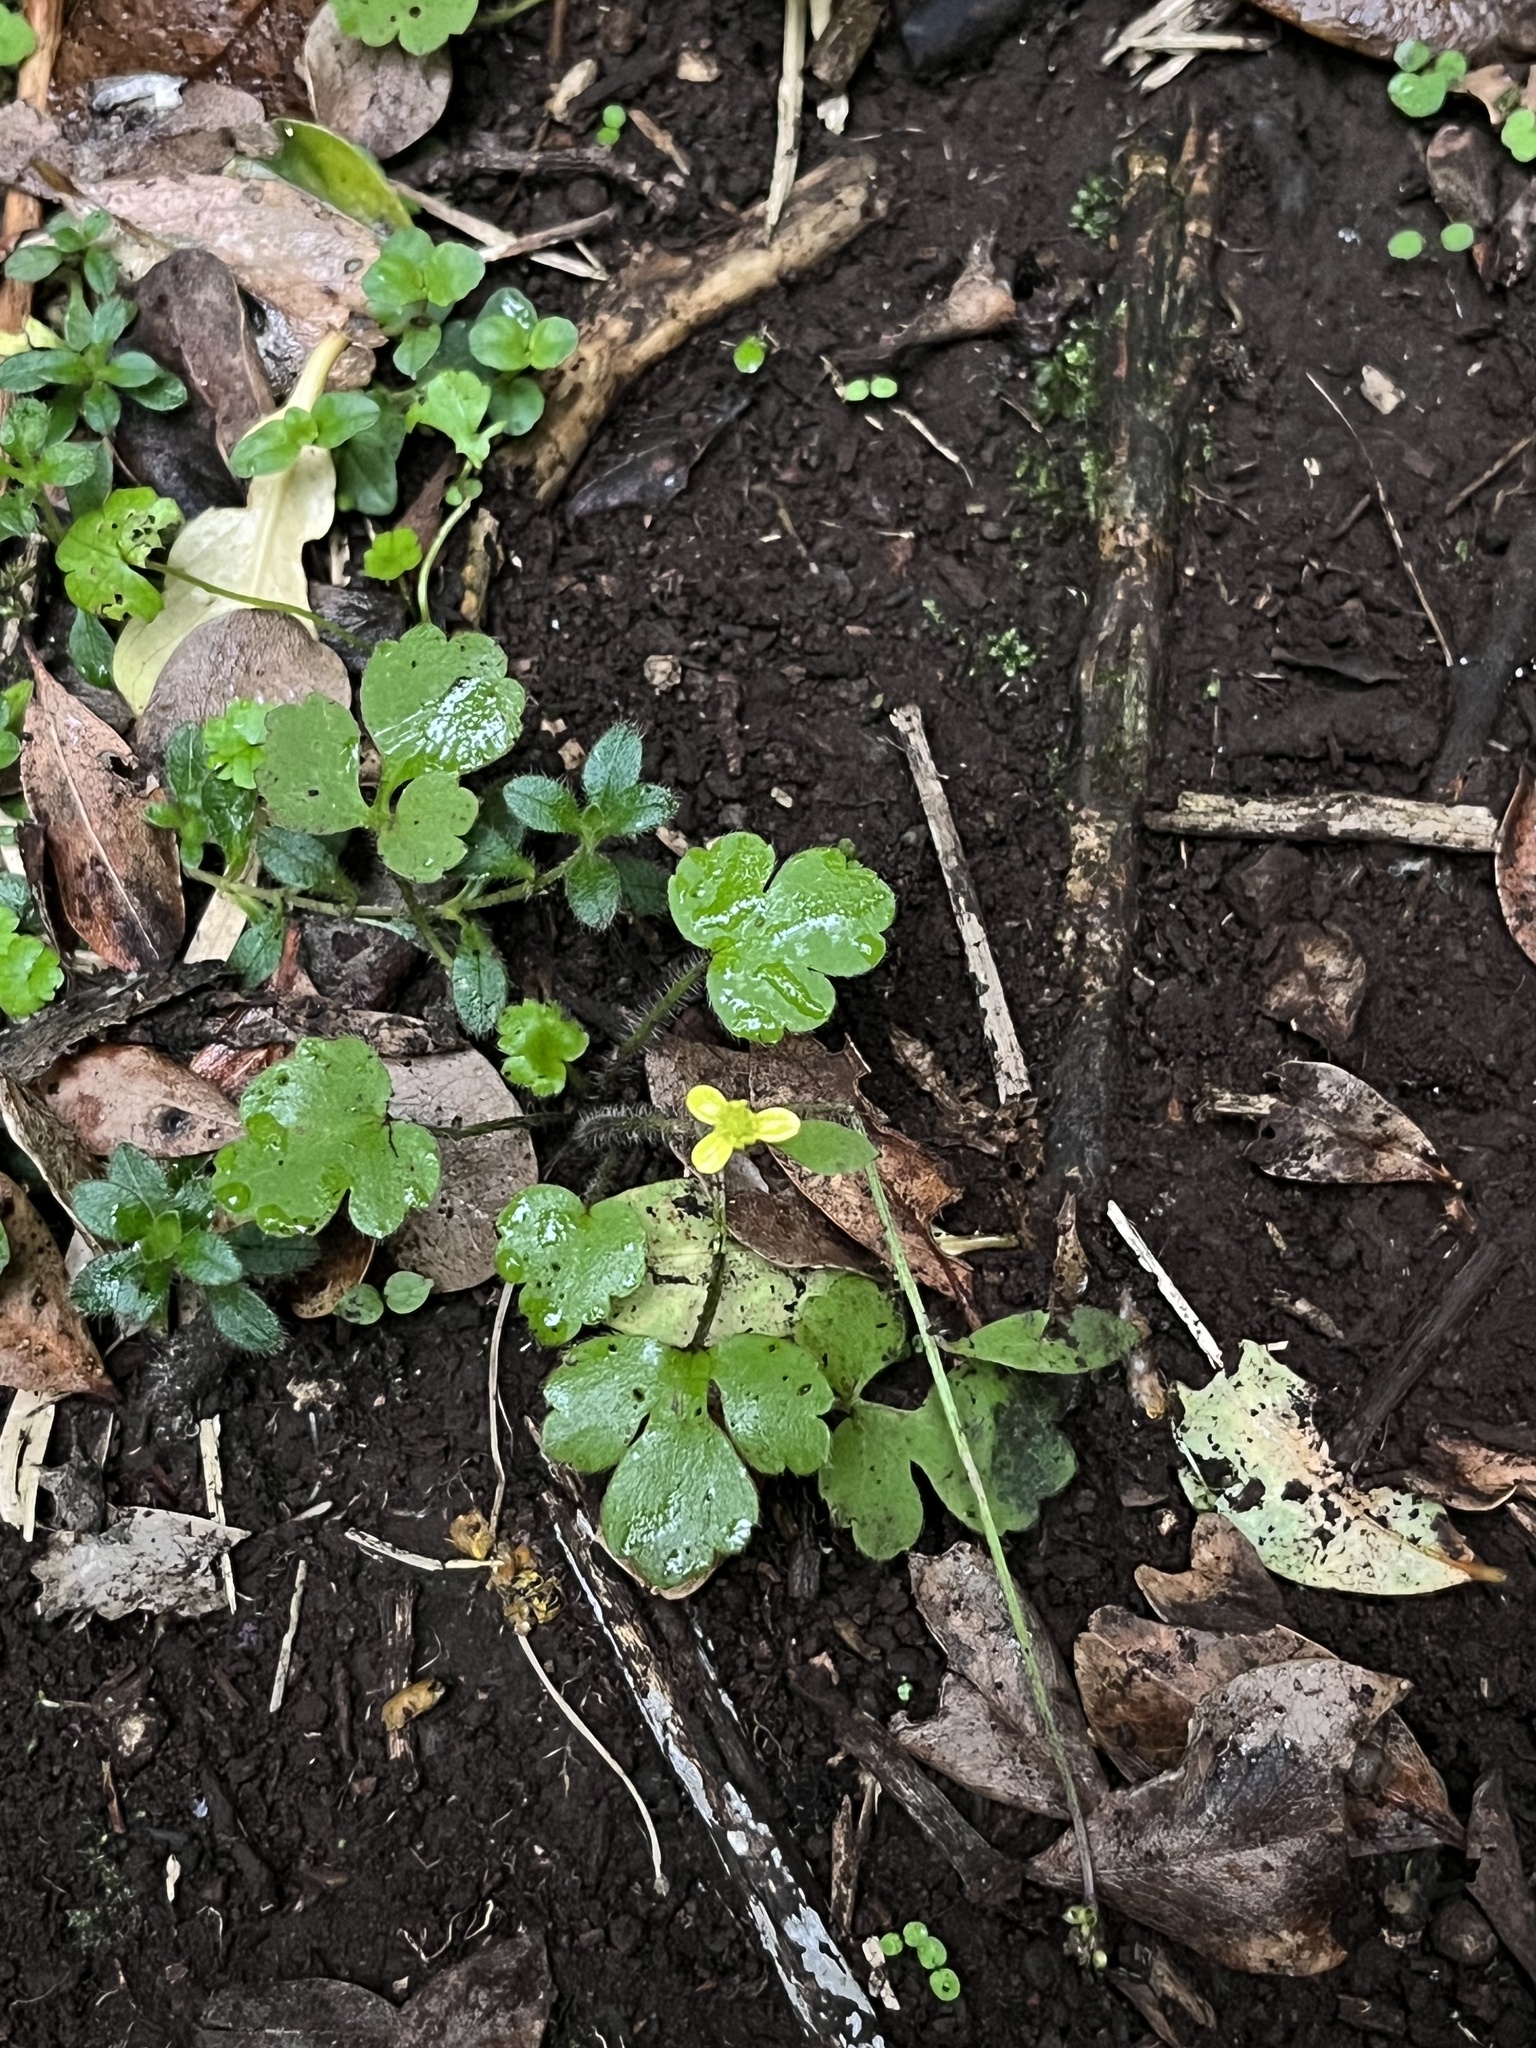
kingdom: Plantae
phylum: Tracheophyta
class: Magnoliopsida
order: Ranunculales
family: Ranunculaceae
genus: Ranunculus
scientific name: Ranunculus reflexus
